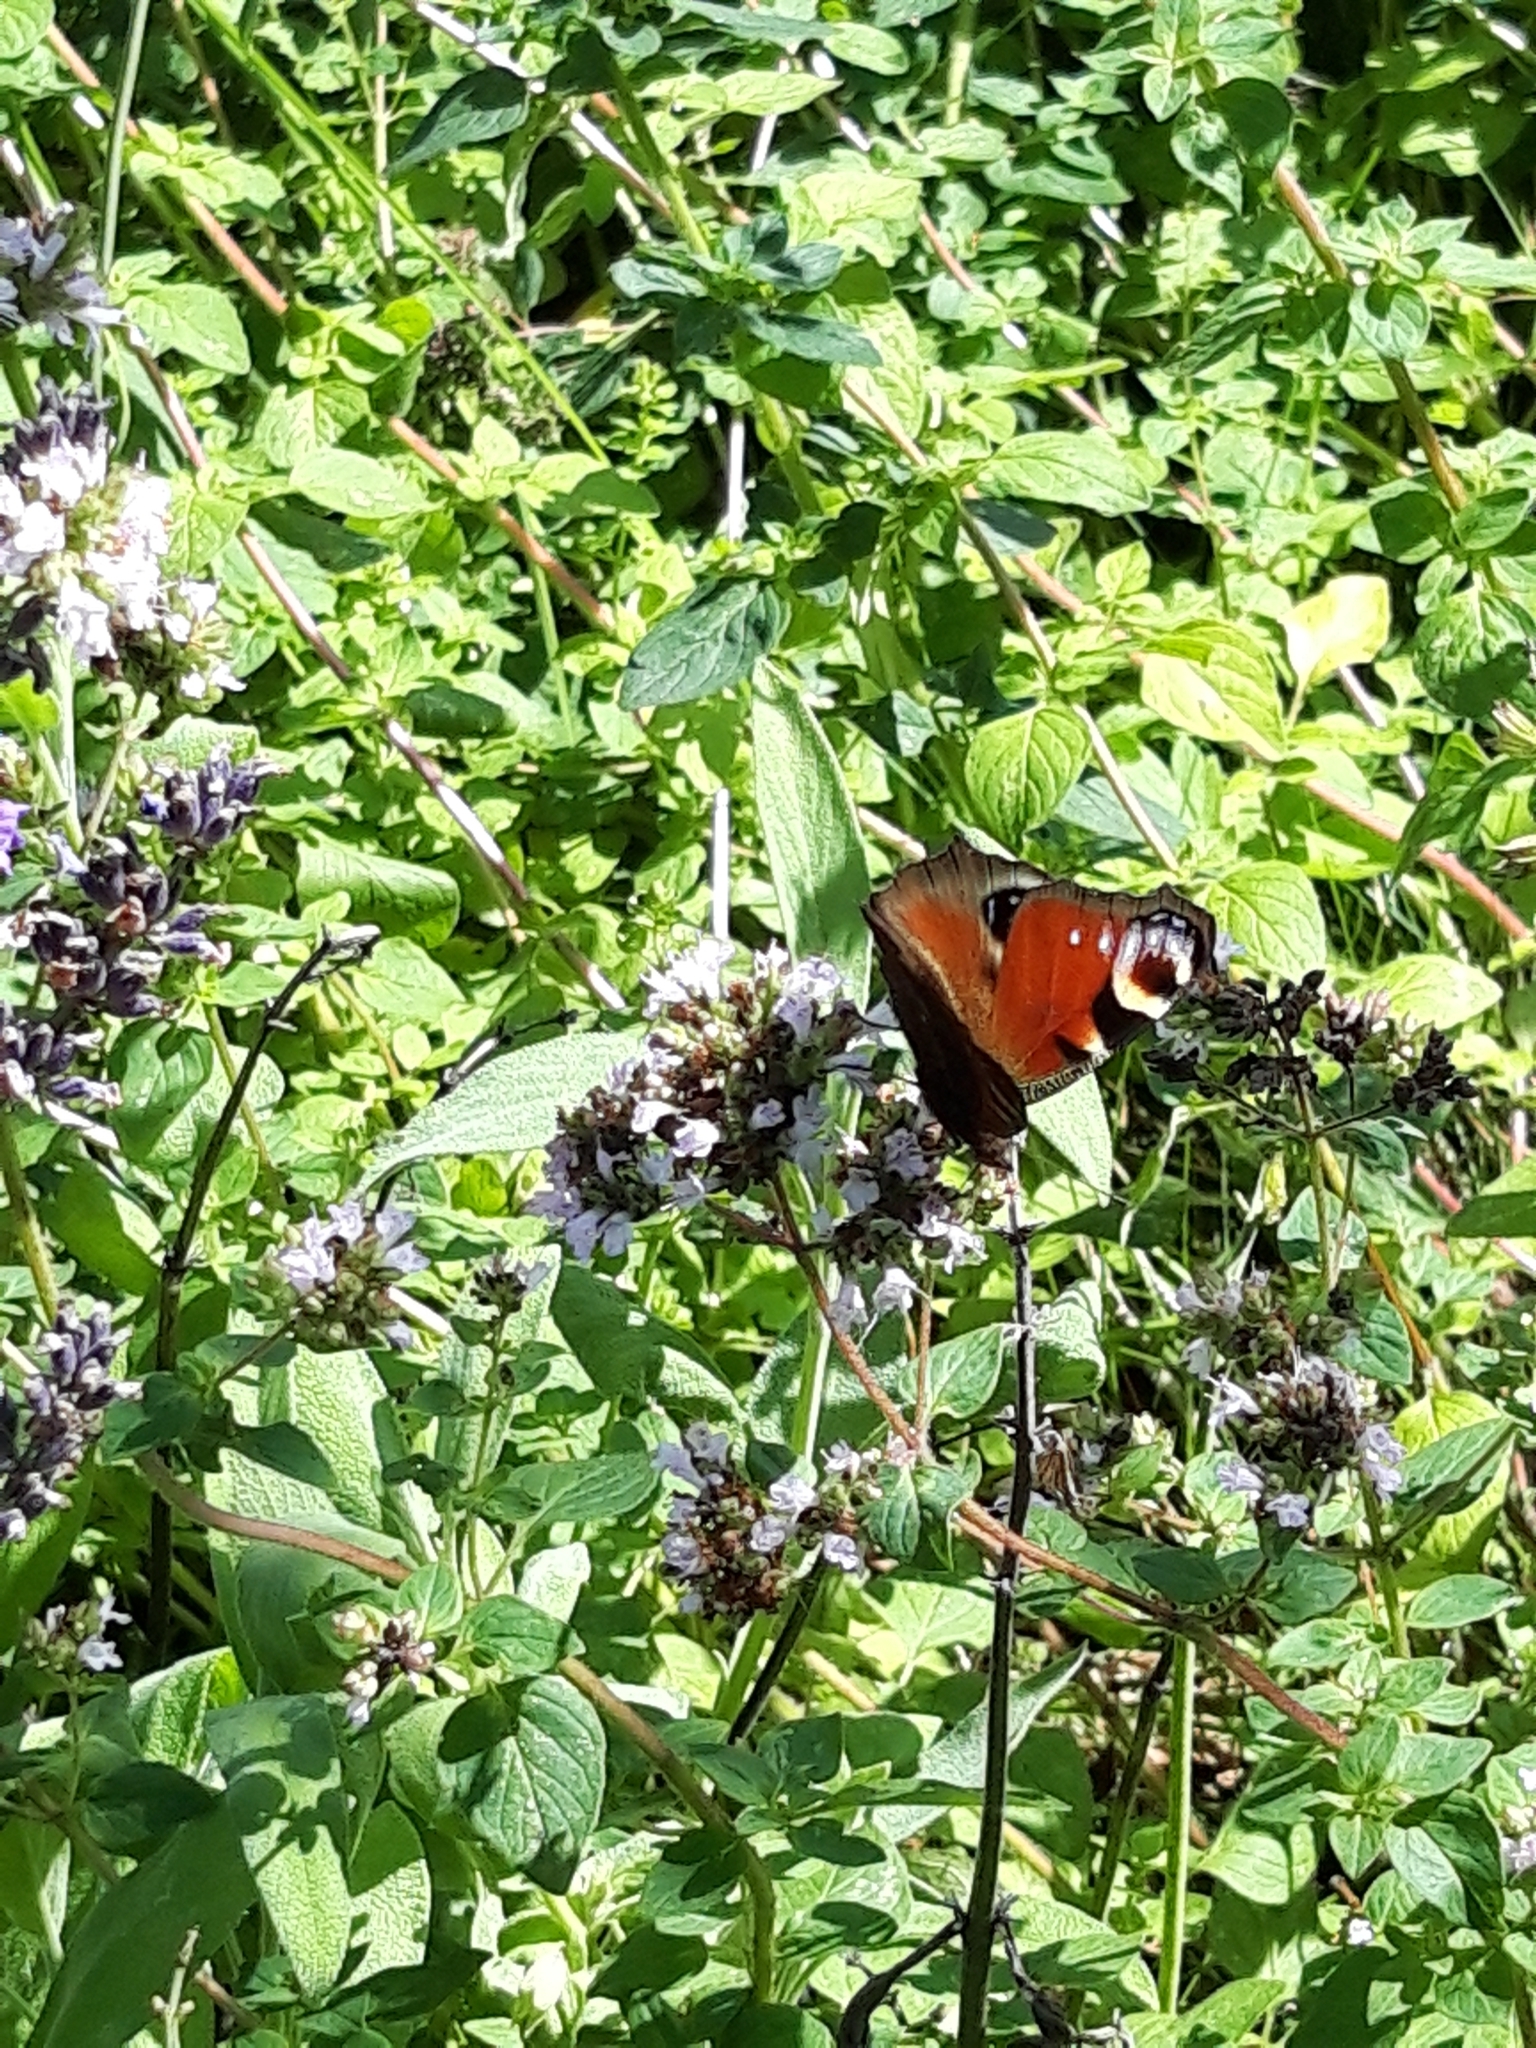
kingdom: Animalia
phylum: Arthropoda
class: Insecta
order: Lepidoptera
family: Nymphalidae
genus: Aglais
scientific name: Aglais io
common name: Peacock
